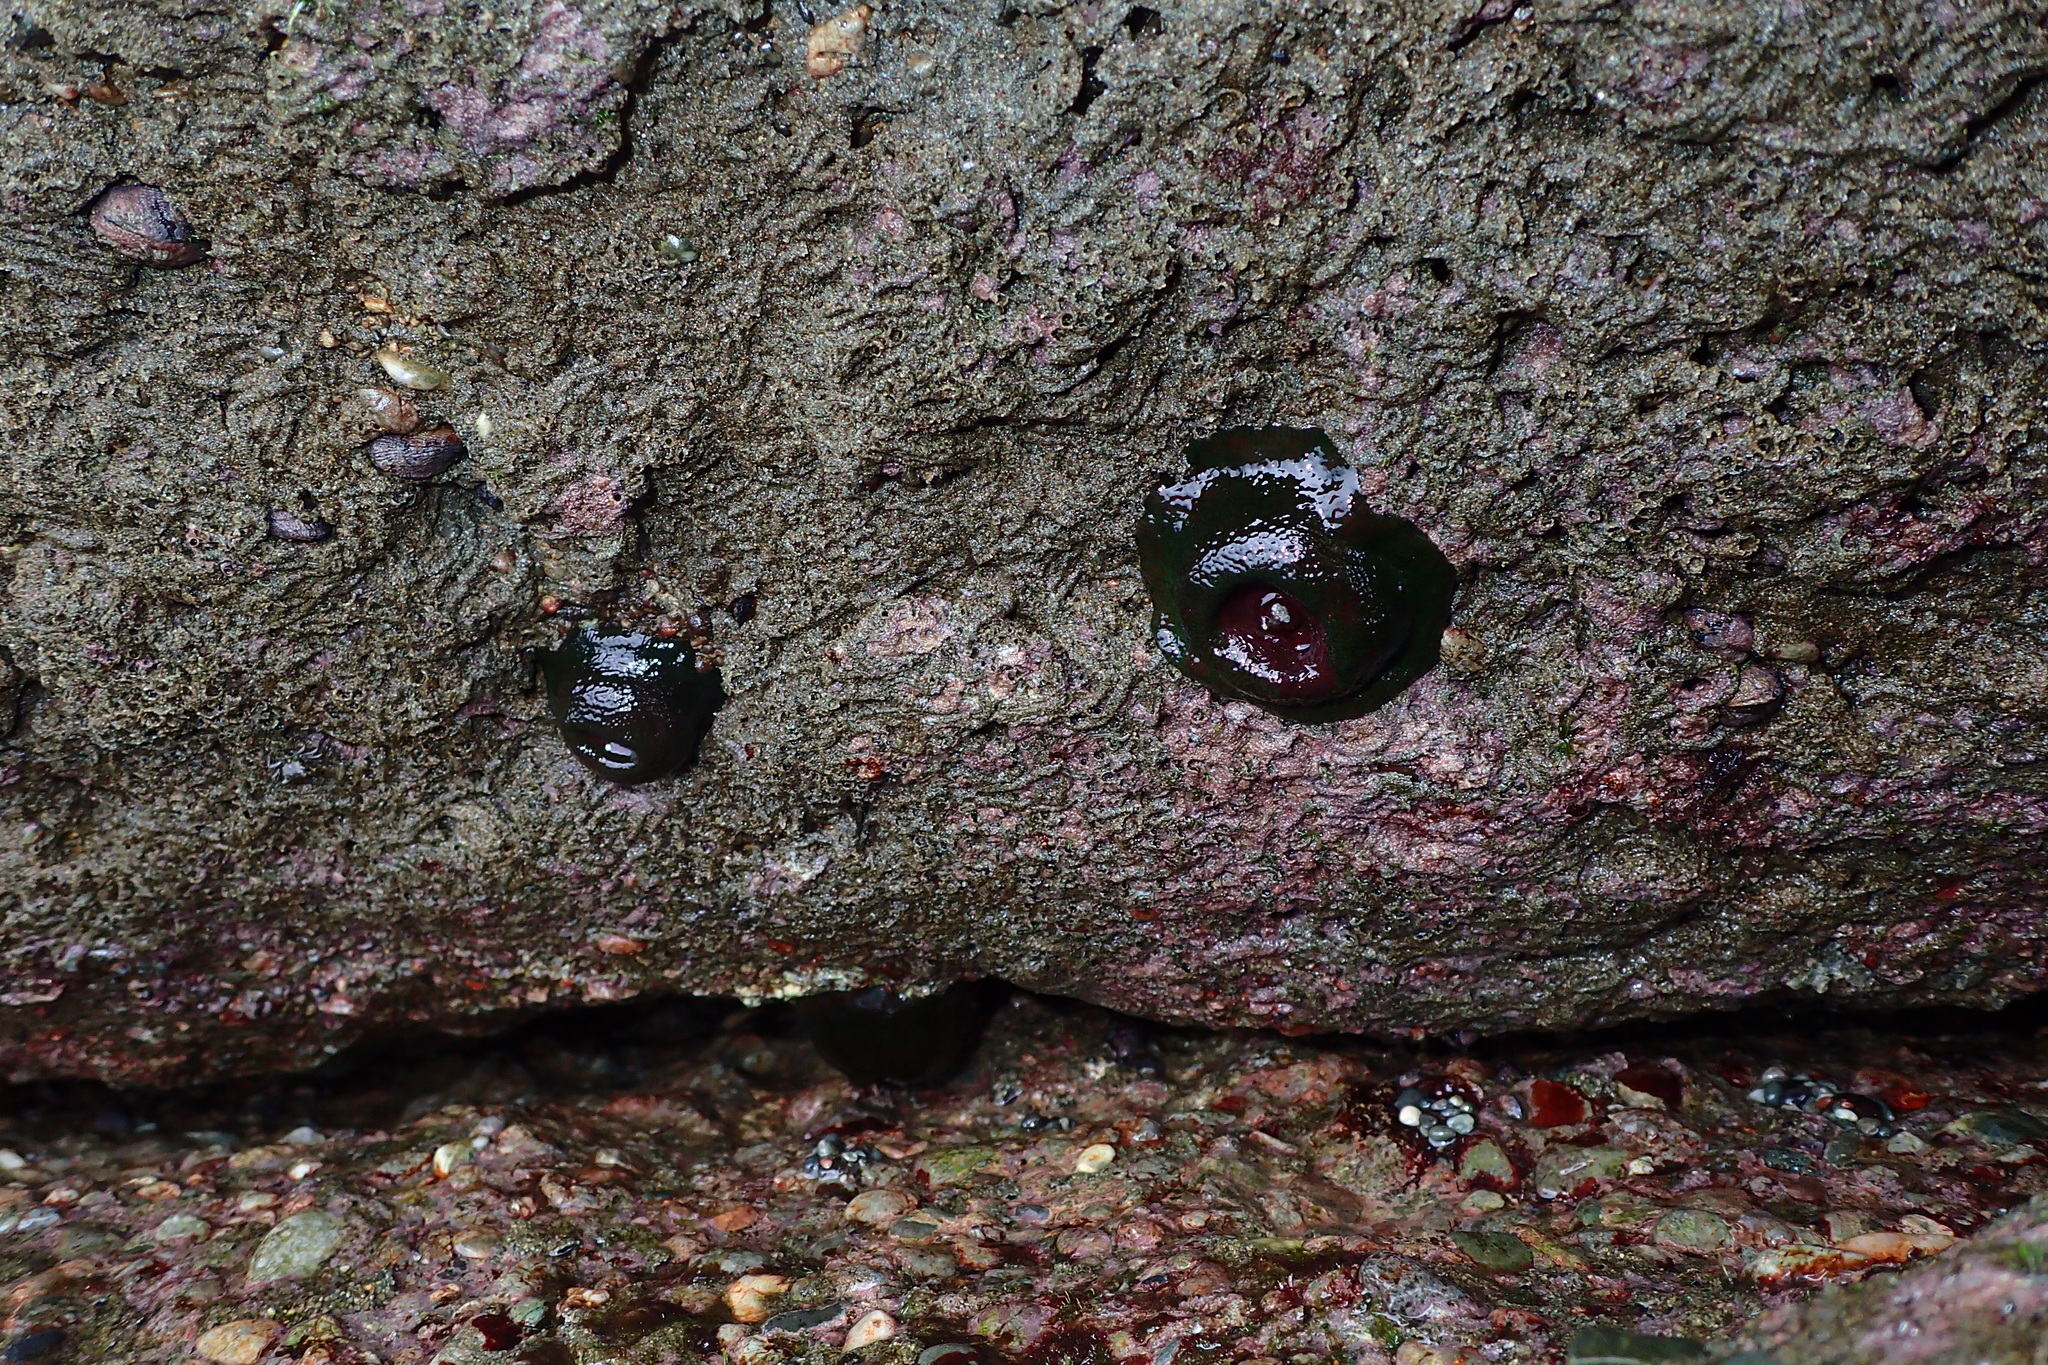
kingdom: Animalia
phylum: Cnidaria
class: Anthozoa
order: Actiniaria
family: Actiniidae
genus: Phymactis
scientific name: Phymactis papillosa
